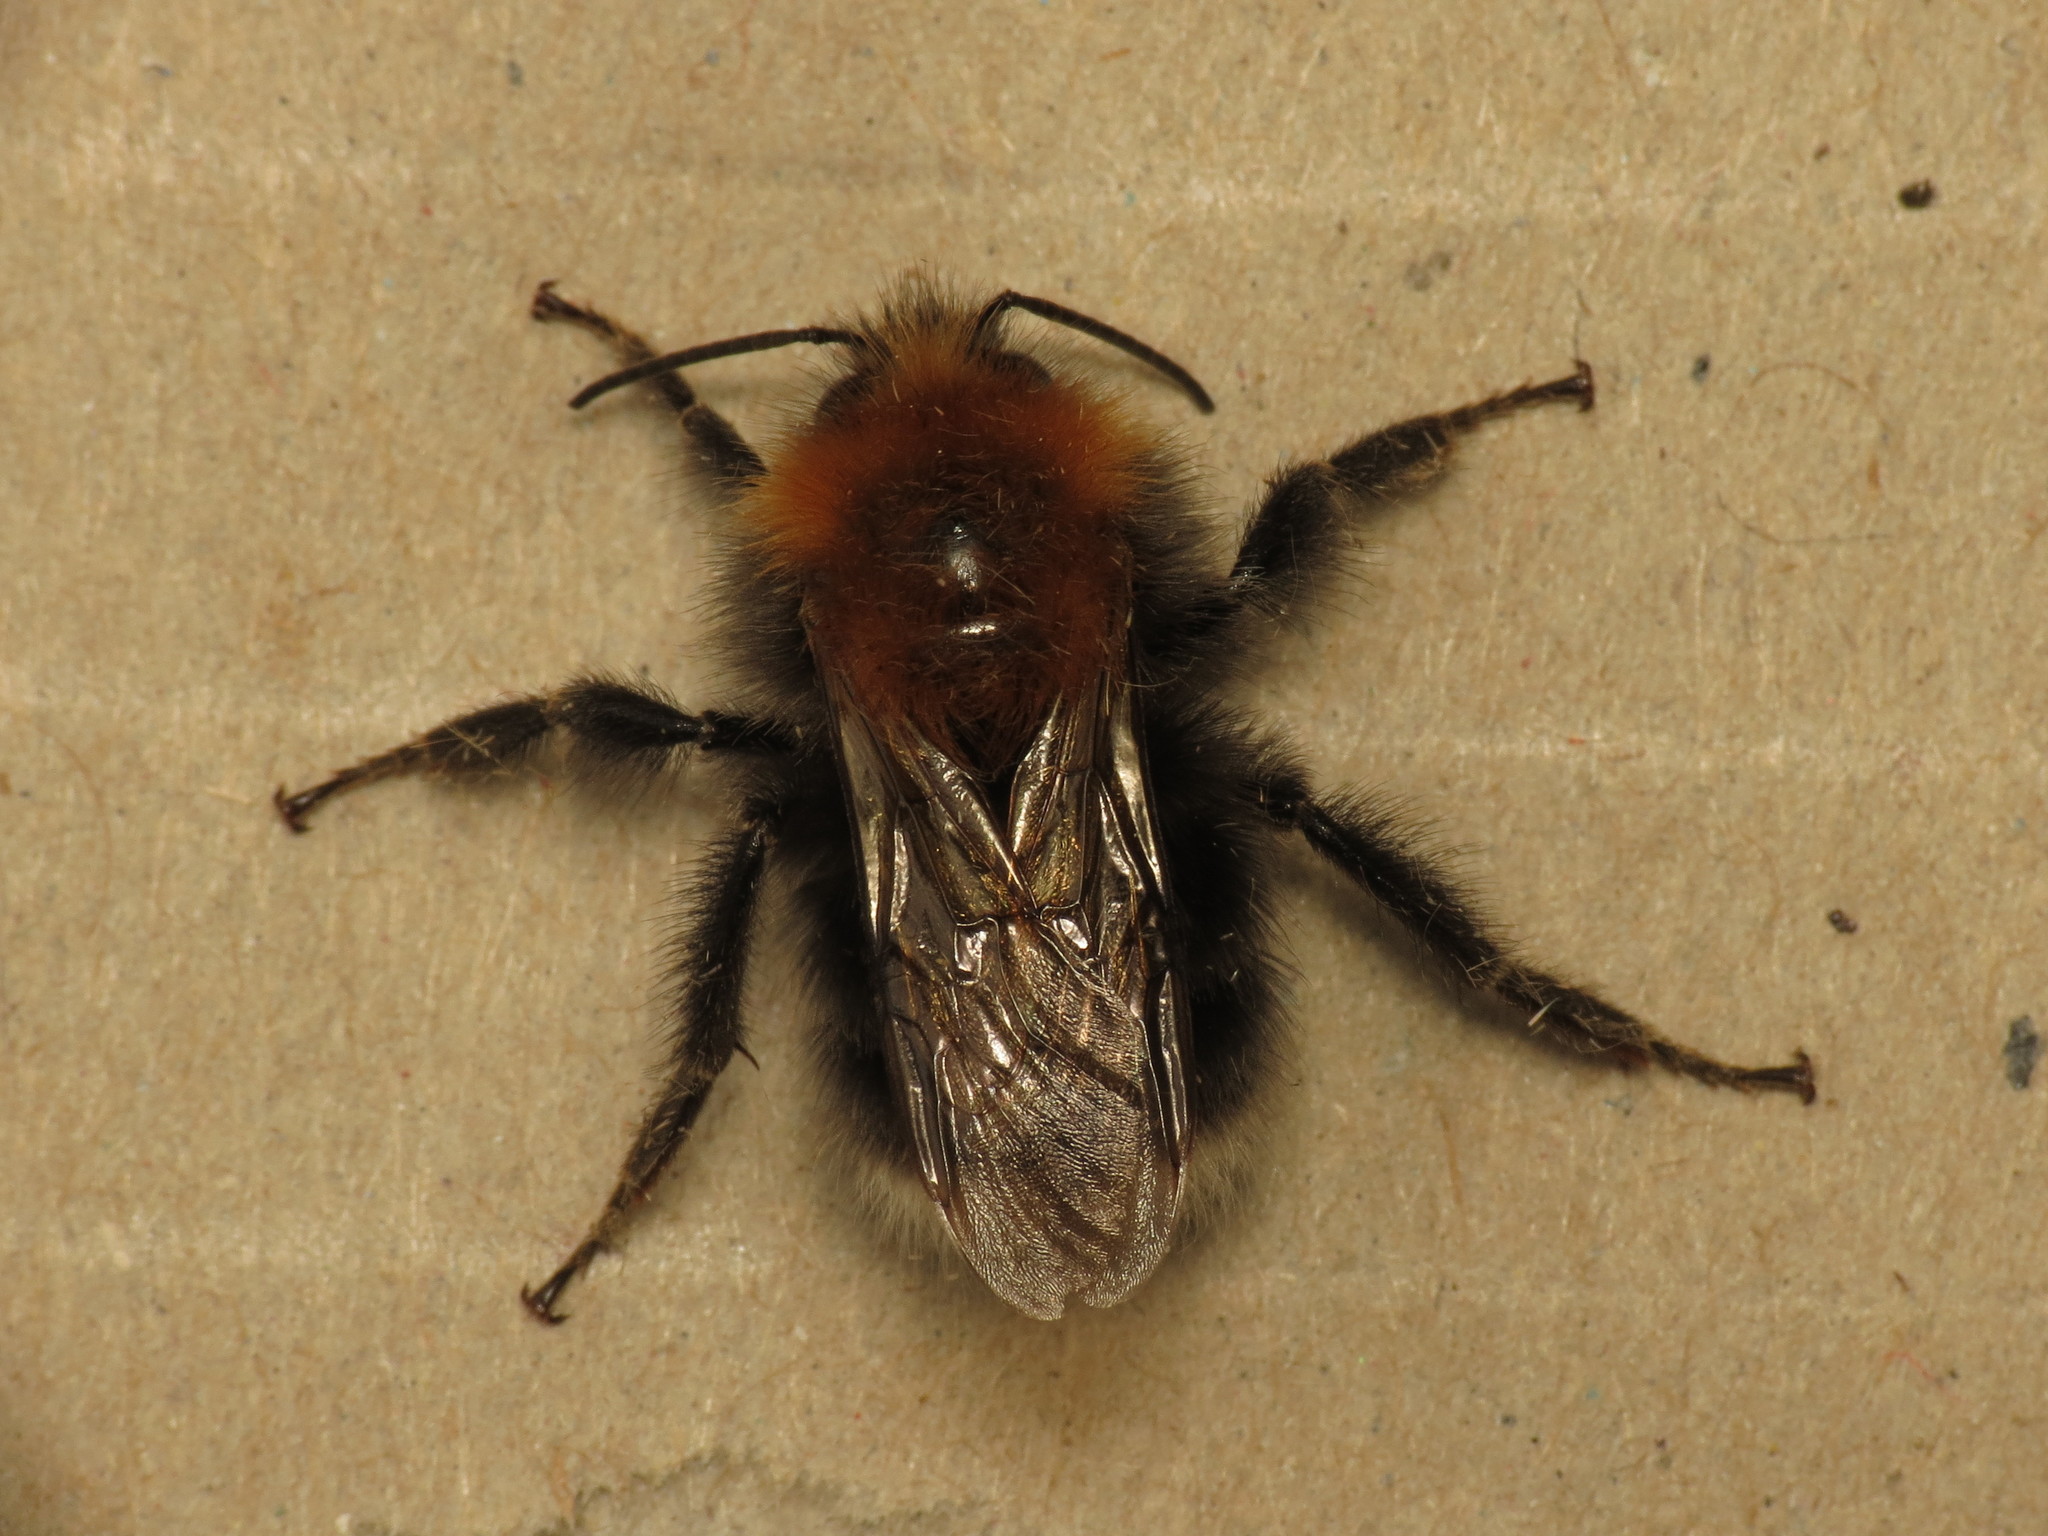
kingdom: Animalia
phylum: Arthropoda
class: Insecta
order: Hymenoptera
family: Apidae
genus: Bombus
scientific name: Bombus hypnorum
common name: New garden bumblebee
